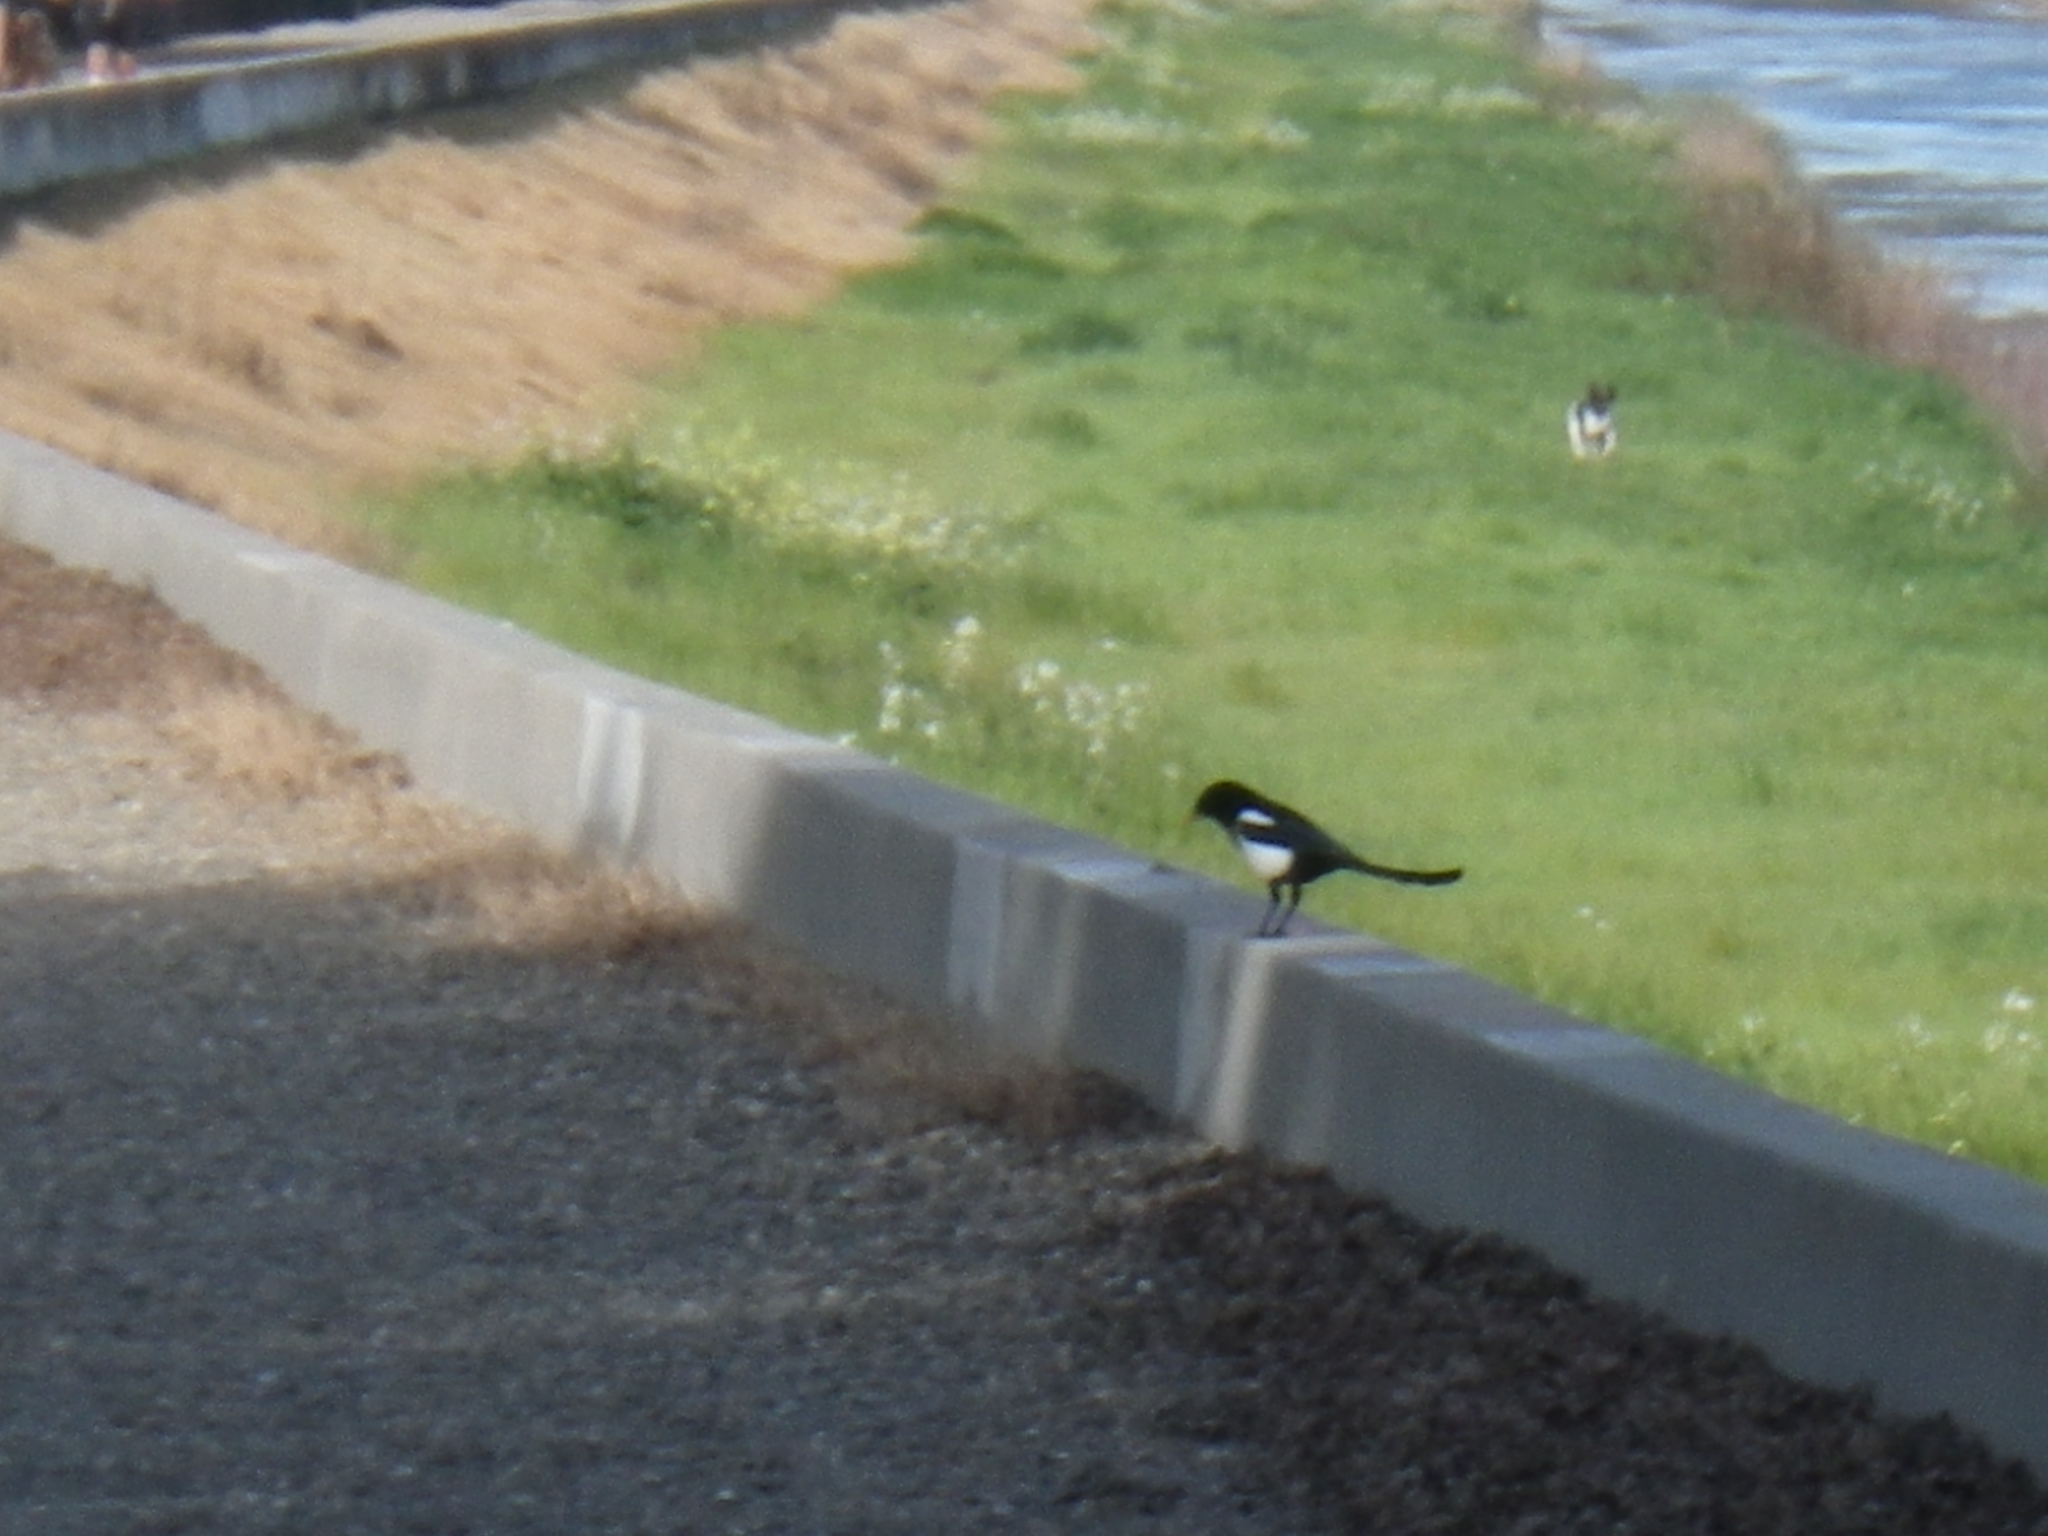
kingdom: Animalia
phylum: Chordata
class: Aves
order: Passeriformes
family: Corvidae
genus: Pica
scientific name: Pica nuttalli
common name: Yellow-billed magpie
